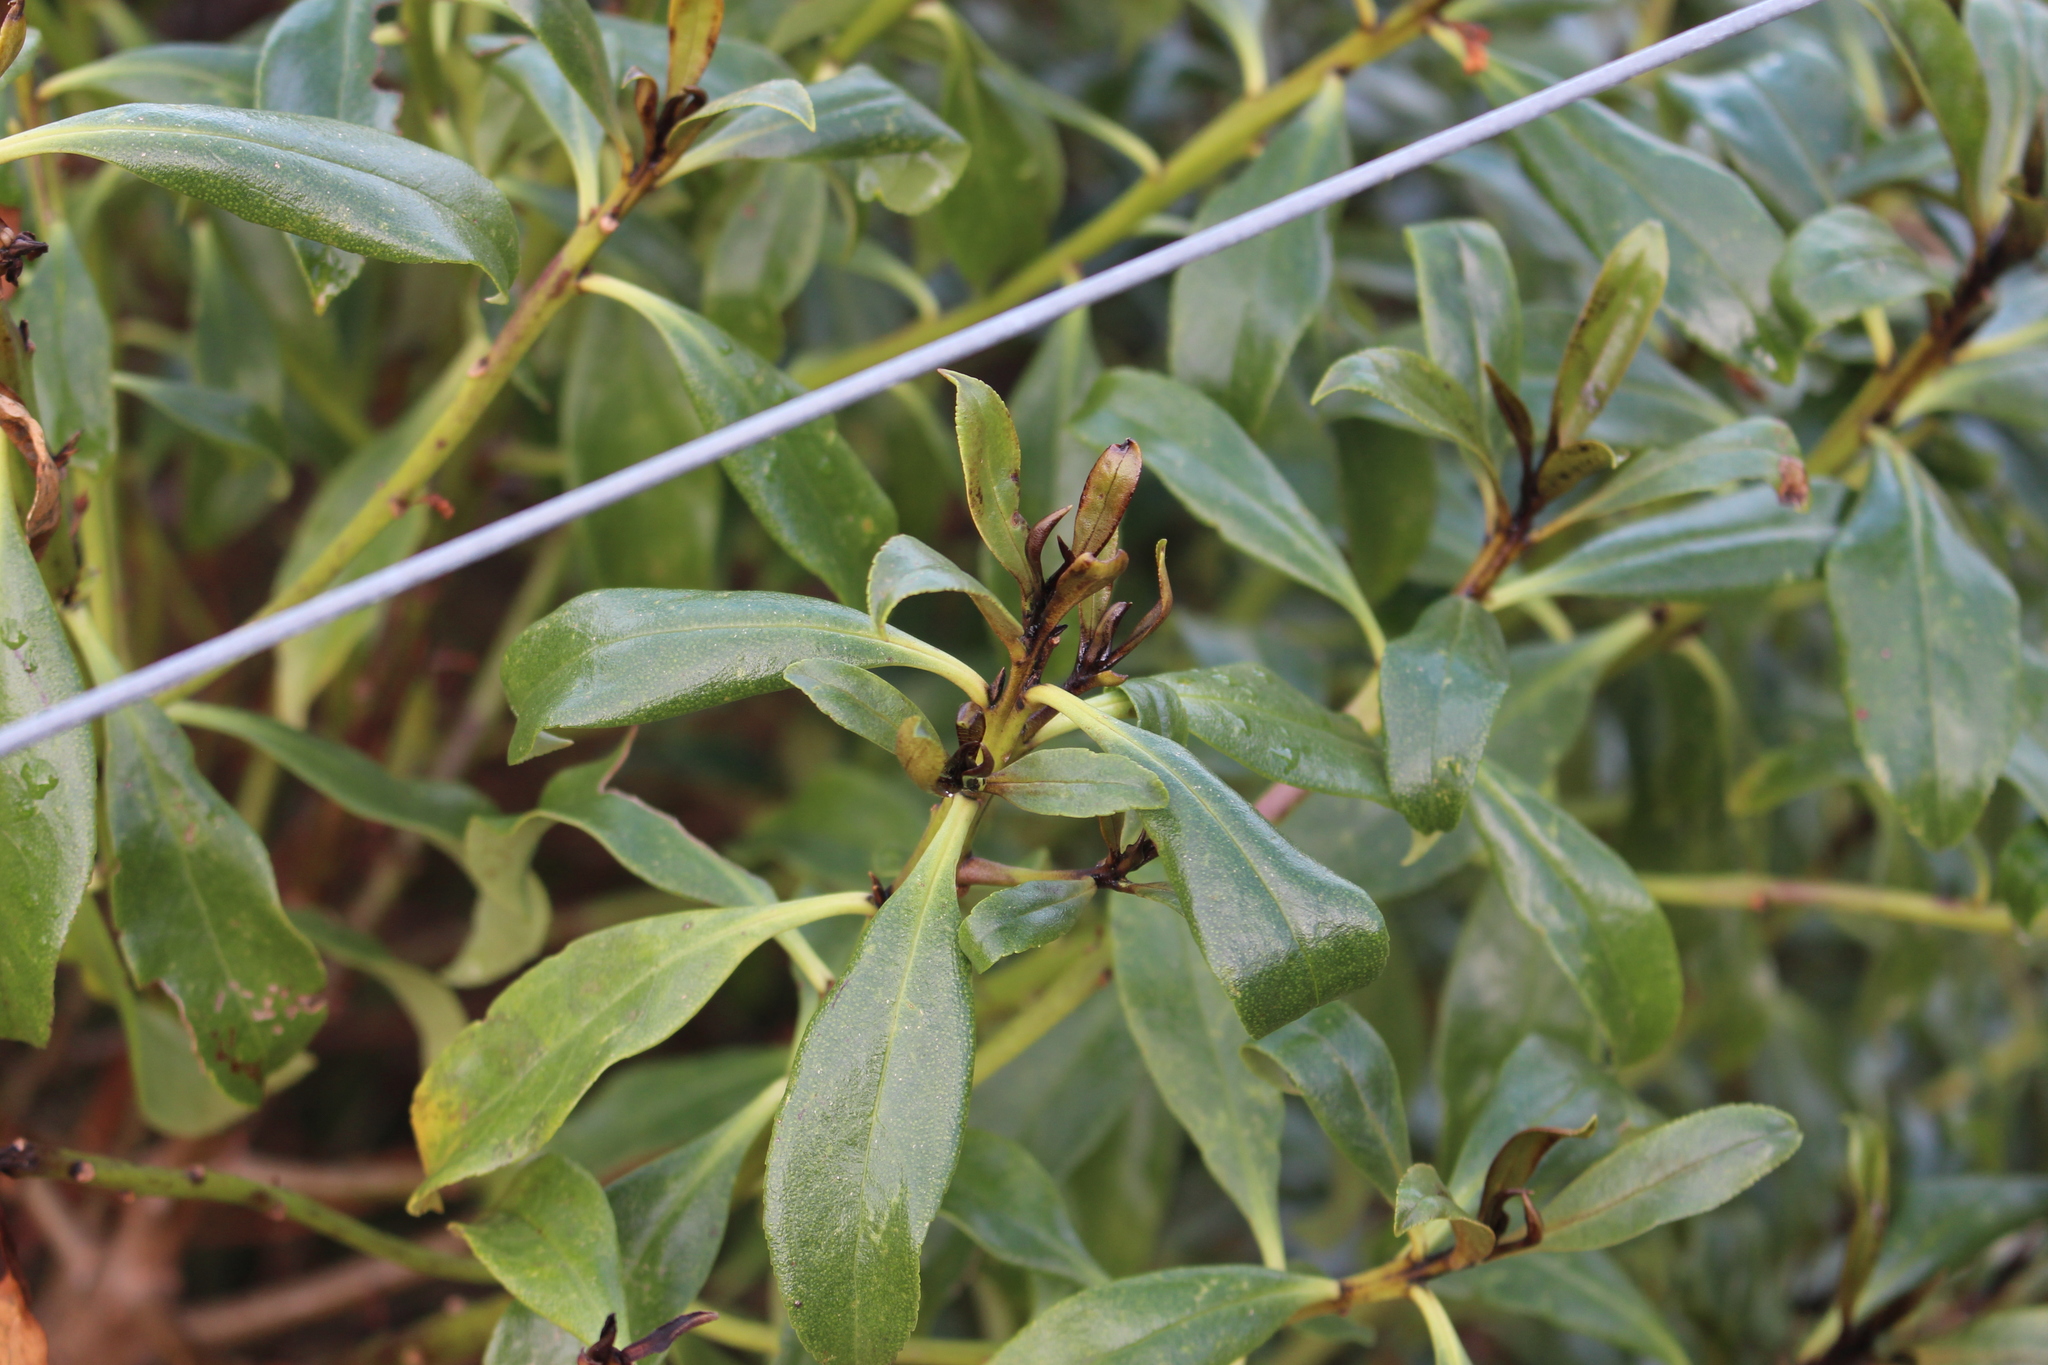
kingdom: Plantae
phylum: Tracheophyta
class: Magnoliopsida
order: Lamiales
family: Scrophulariaceae
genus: Myoporum
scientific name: Myoporum laetum
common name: Ngaio tree
